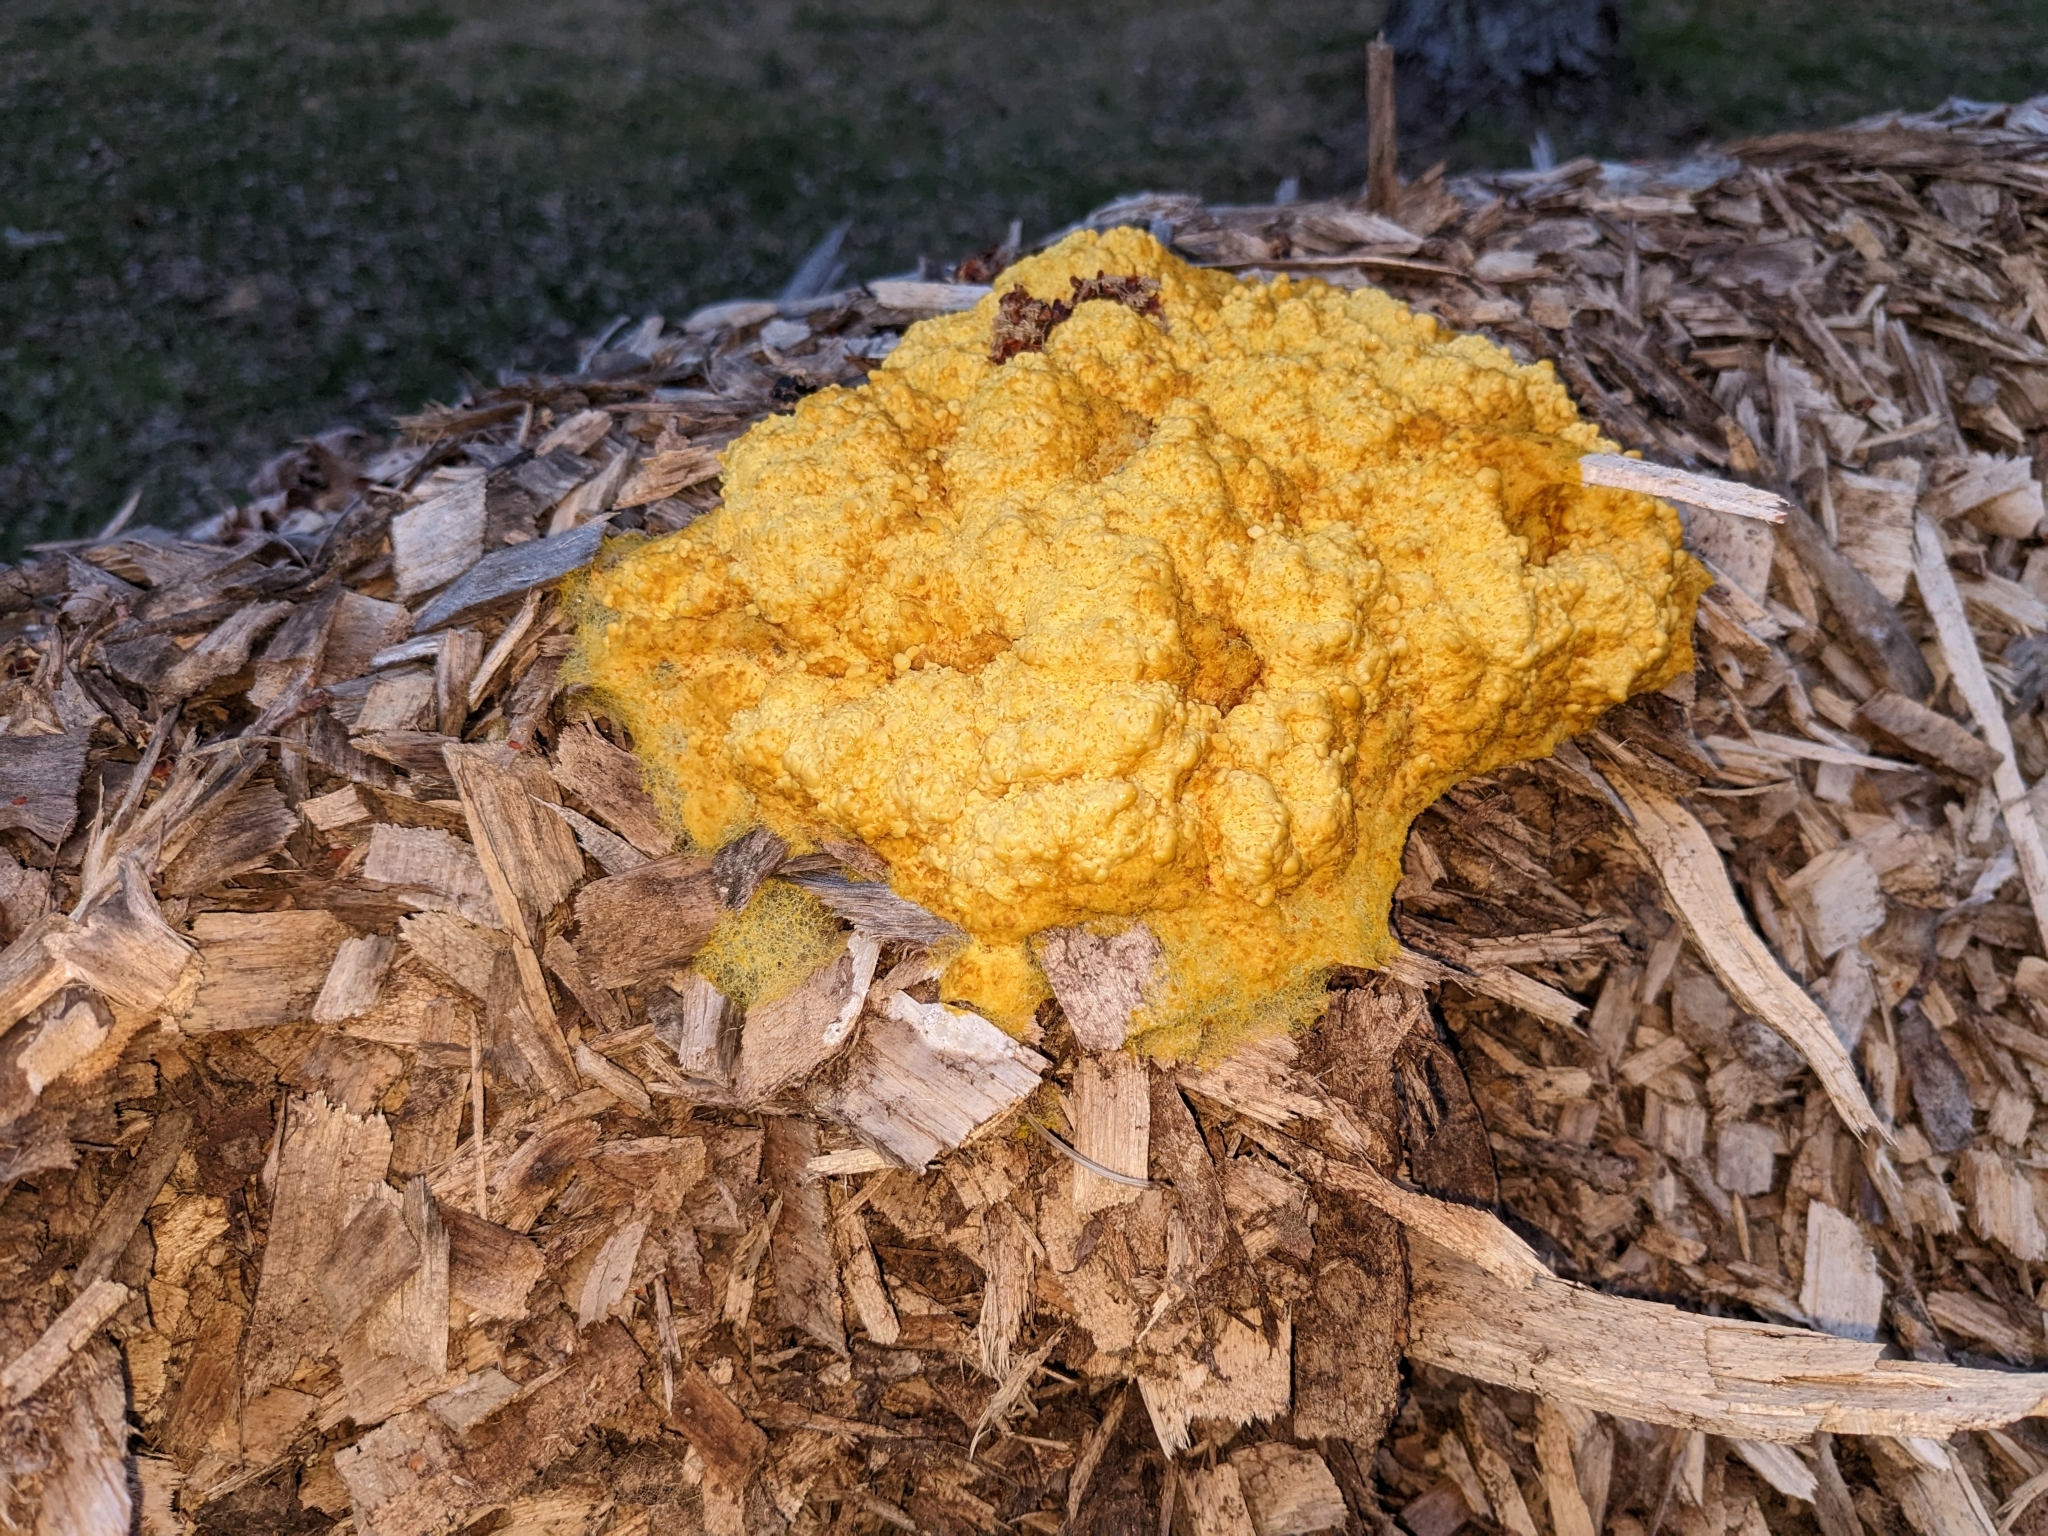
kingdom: Protozoa
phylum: Mycetozoa
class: Myxomycetes
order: Physarales
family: Physaraceae
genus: Fuligo
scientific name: Fuligo septica
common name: Dog vomit slime mold
